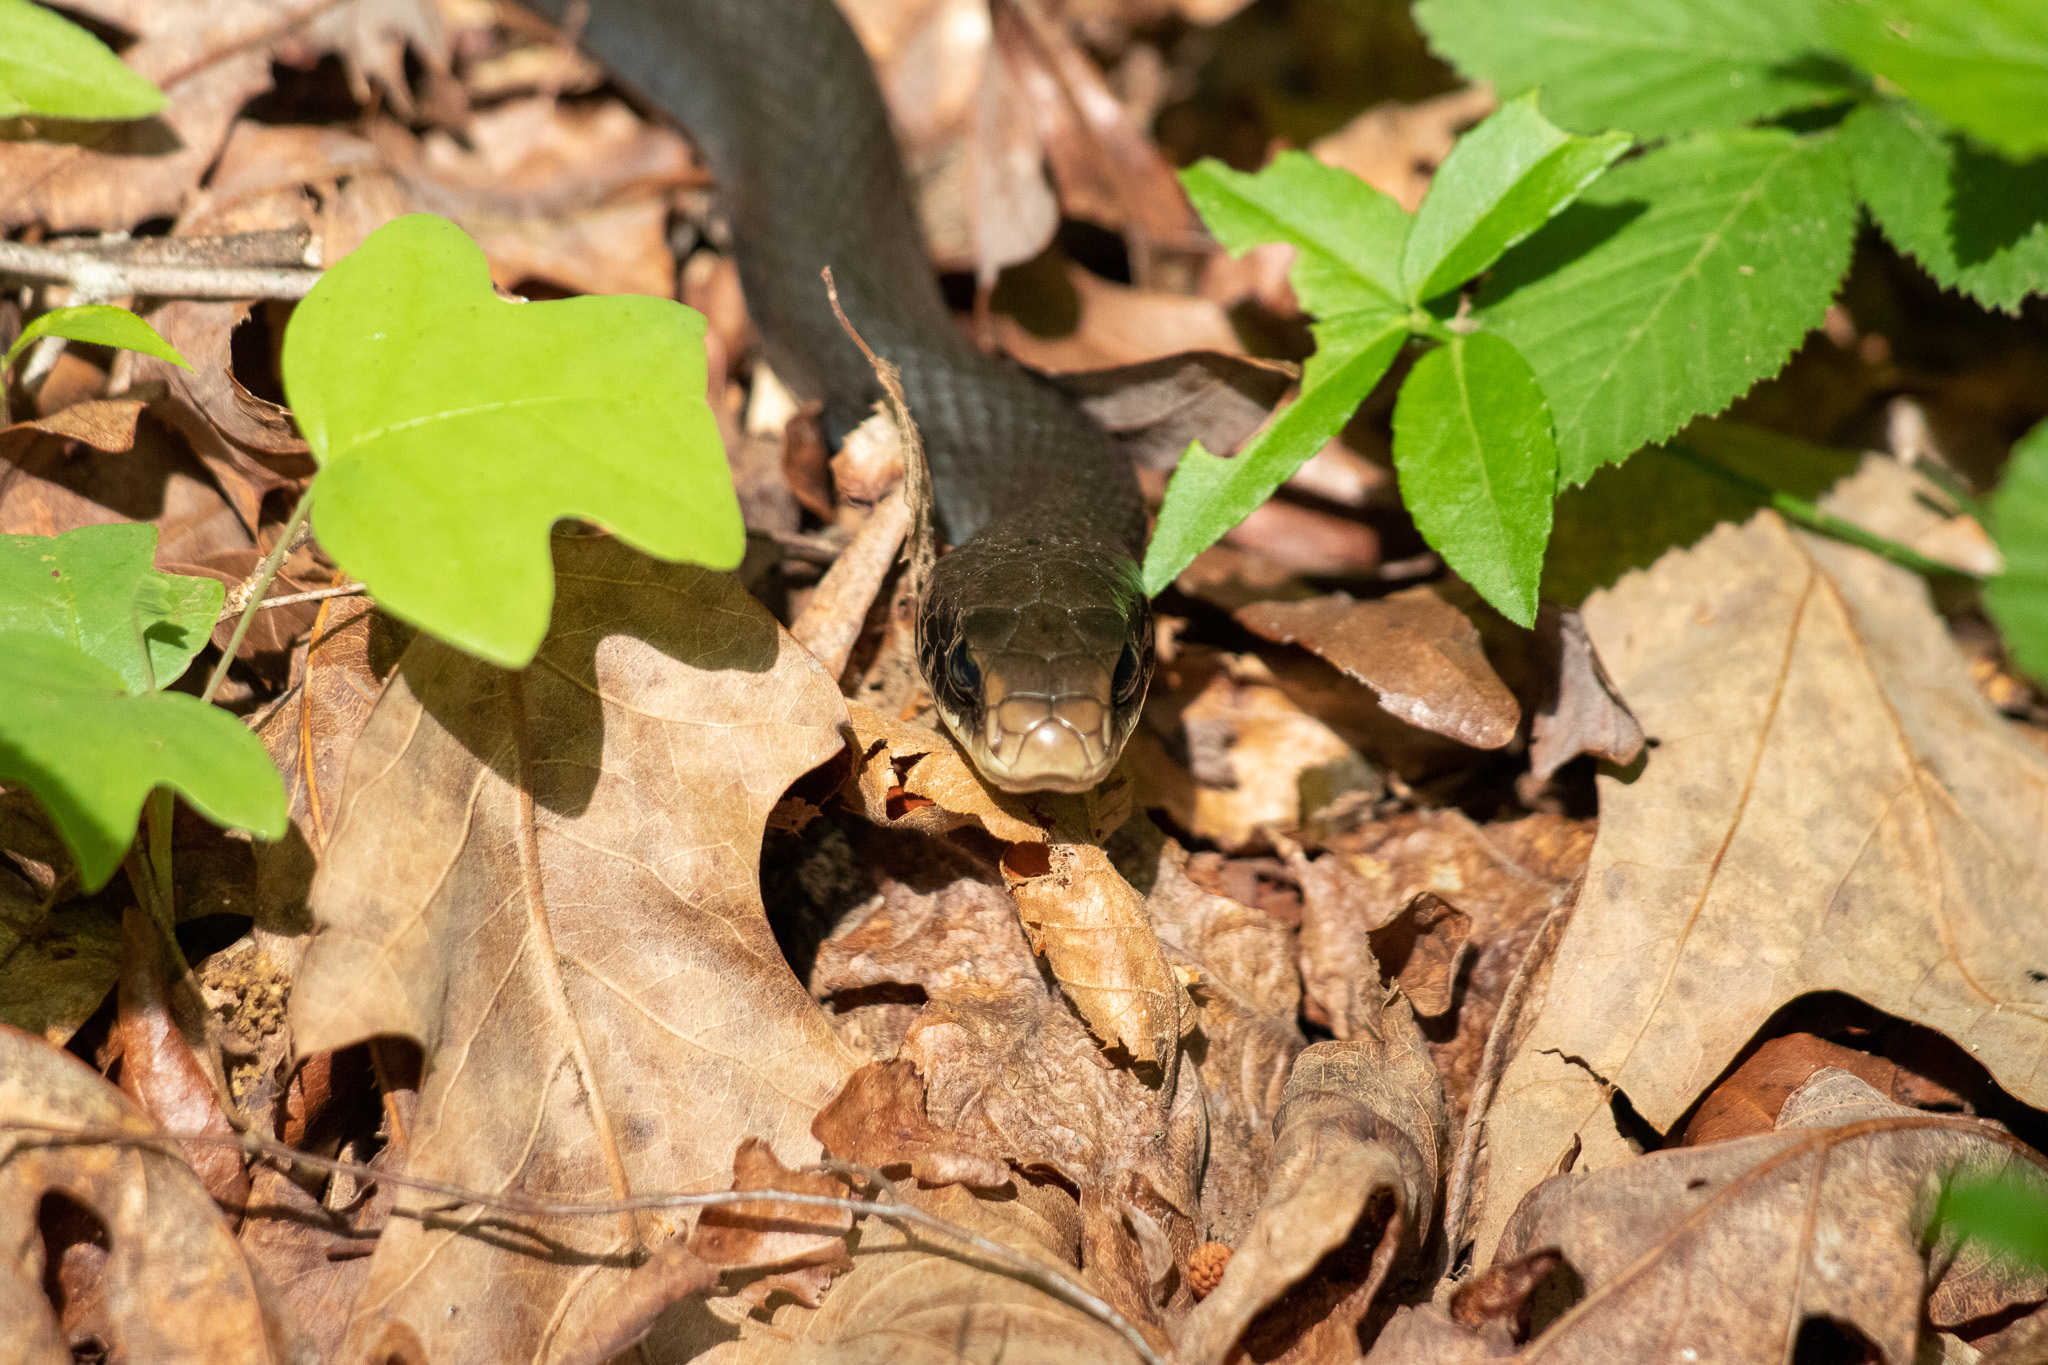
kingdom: Animalia
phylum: Chordata
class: Squamata
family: Colubridae
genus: Coluber
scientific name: Coluber constrictor
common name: Eastern racer
